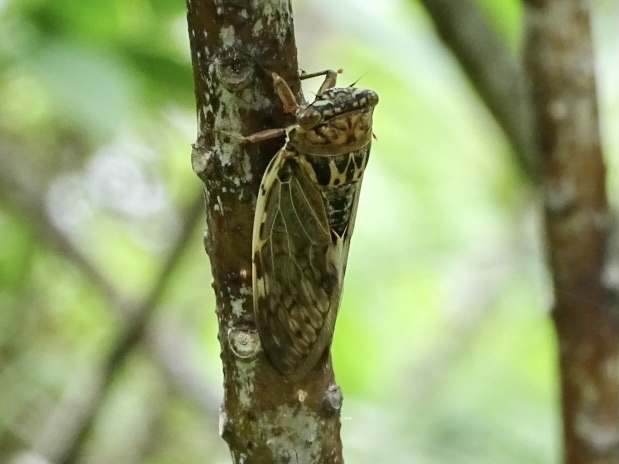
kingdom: Animalia
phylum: Arthropoda
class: Insecta
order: Hemiptera
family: Cicadidae
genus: Platypleura
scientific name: Platypleura hilpa
